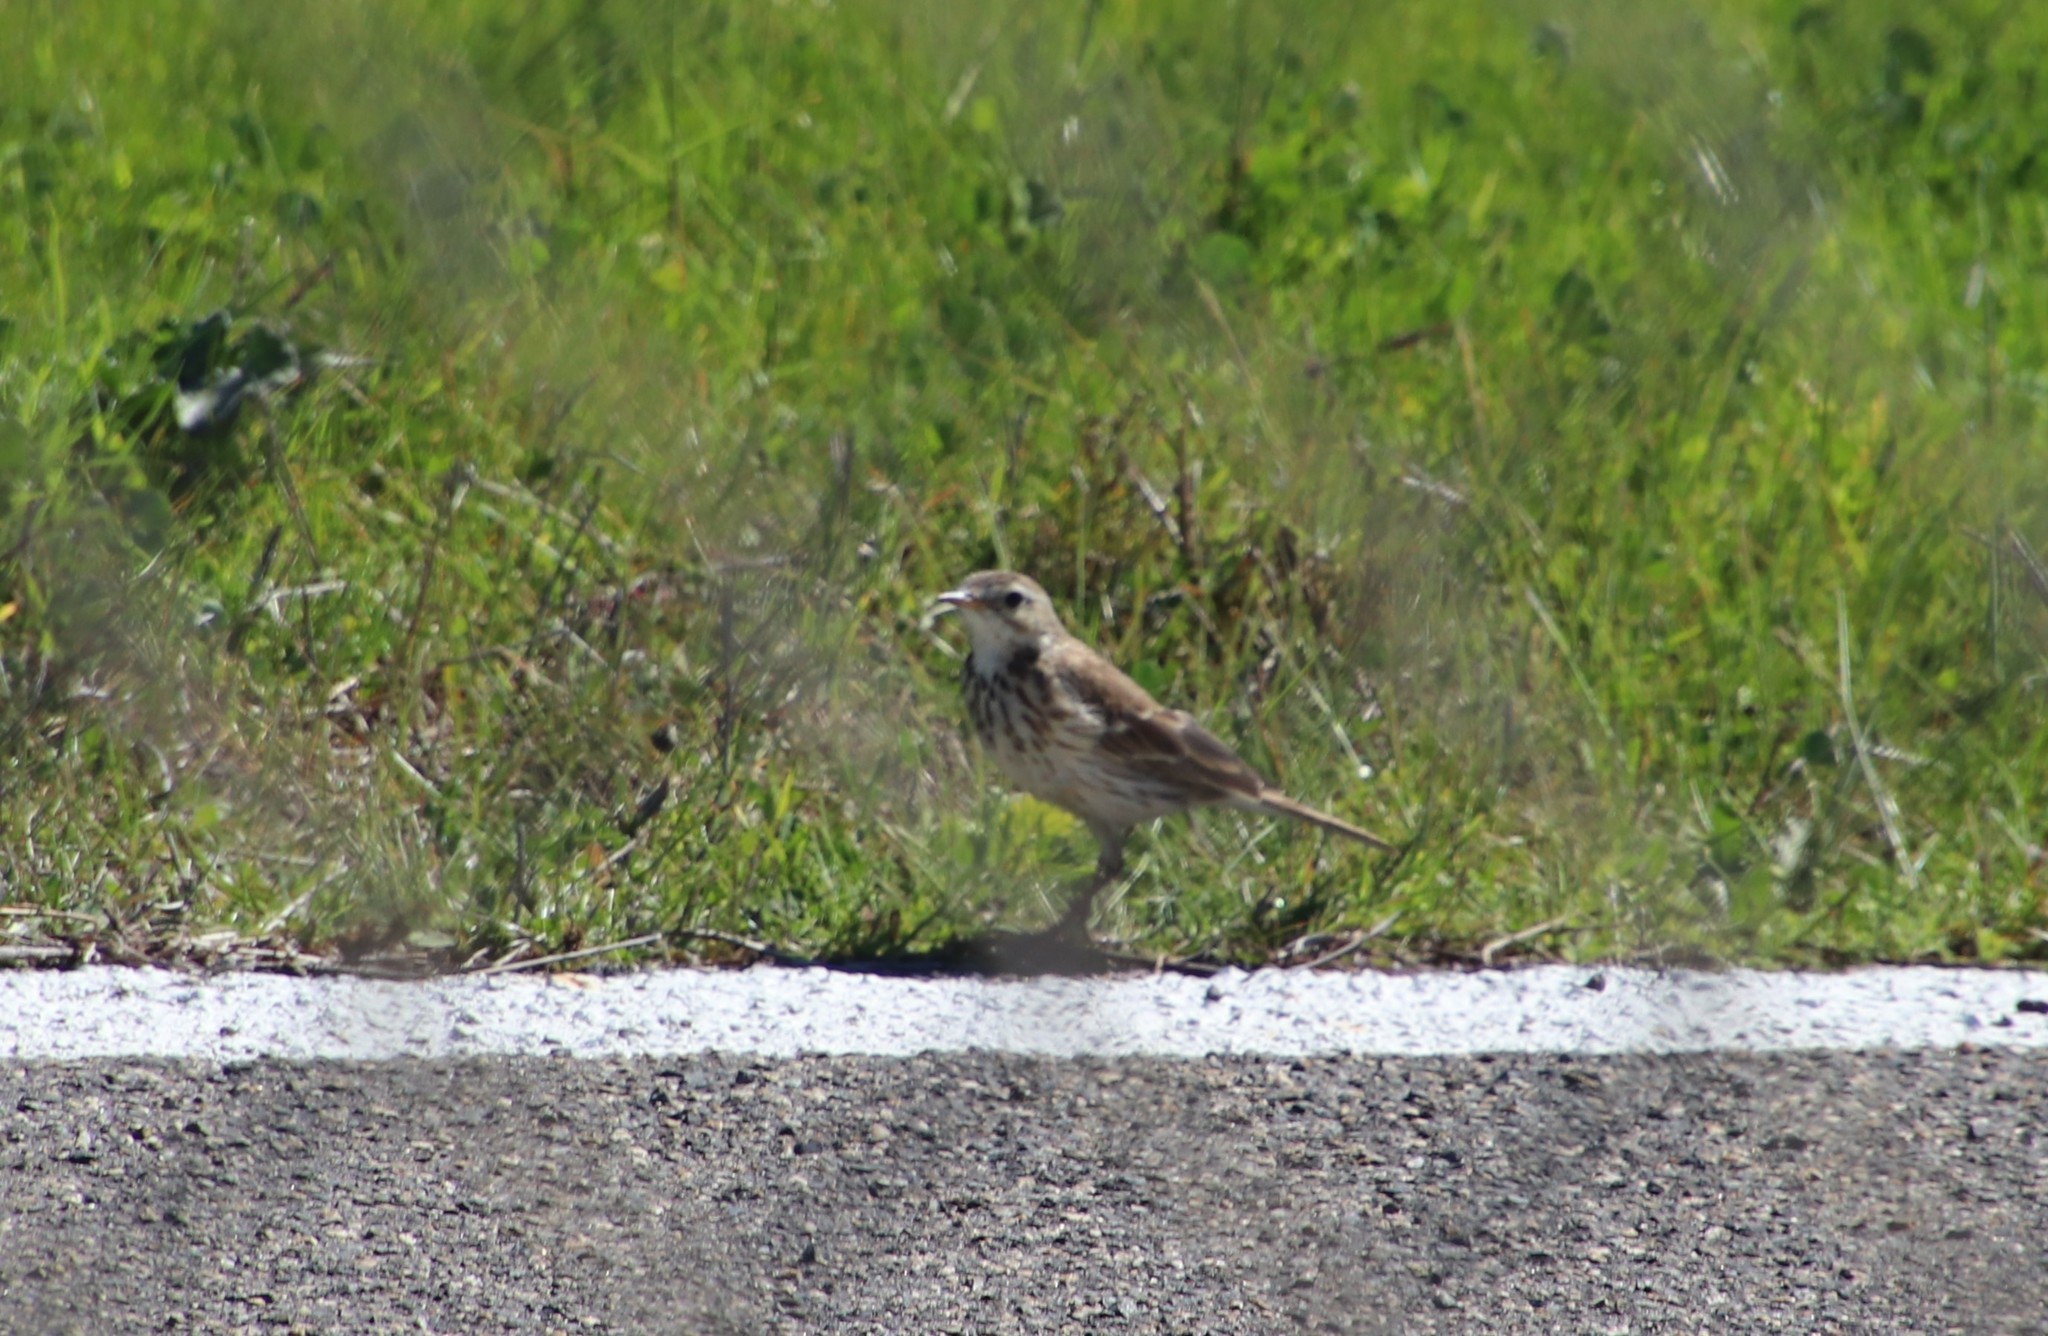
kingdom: Animalia
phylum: Chordata
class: Aves
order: Passeriformes
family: Motacillidae
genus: Anthus
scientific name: Anthus rubescens
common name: Buff-bellied pipit
